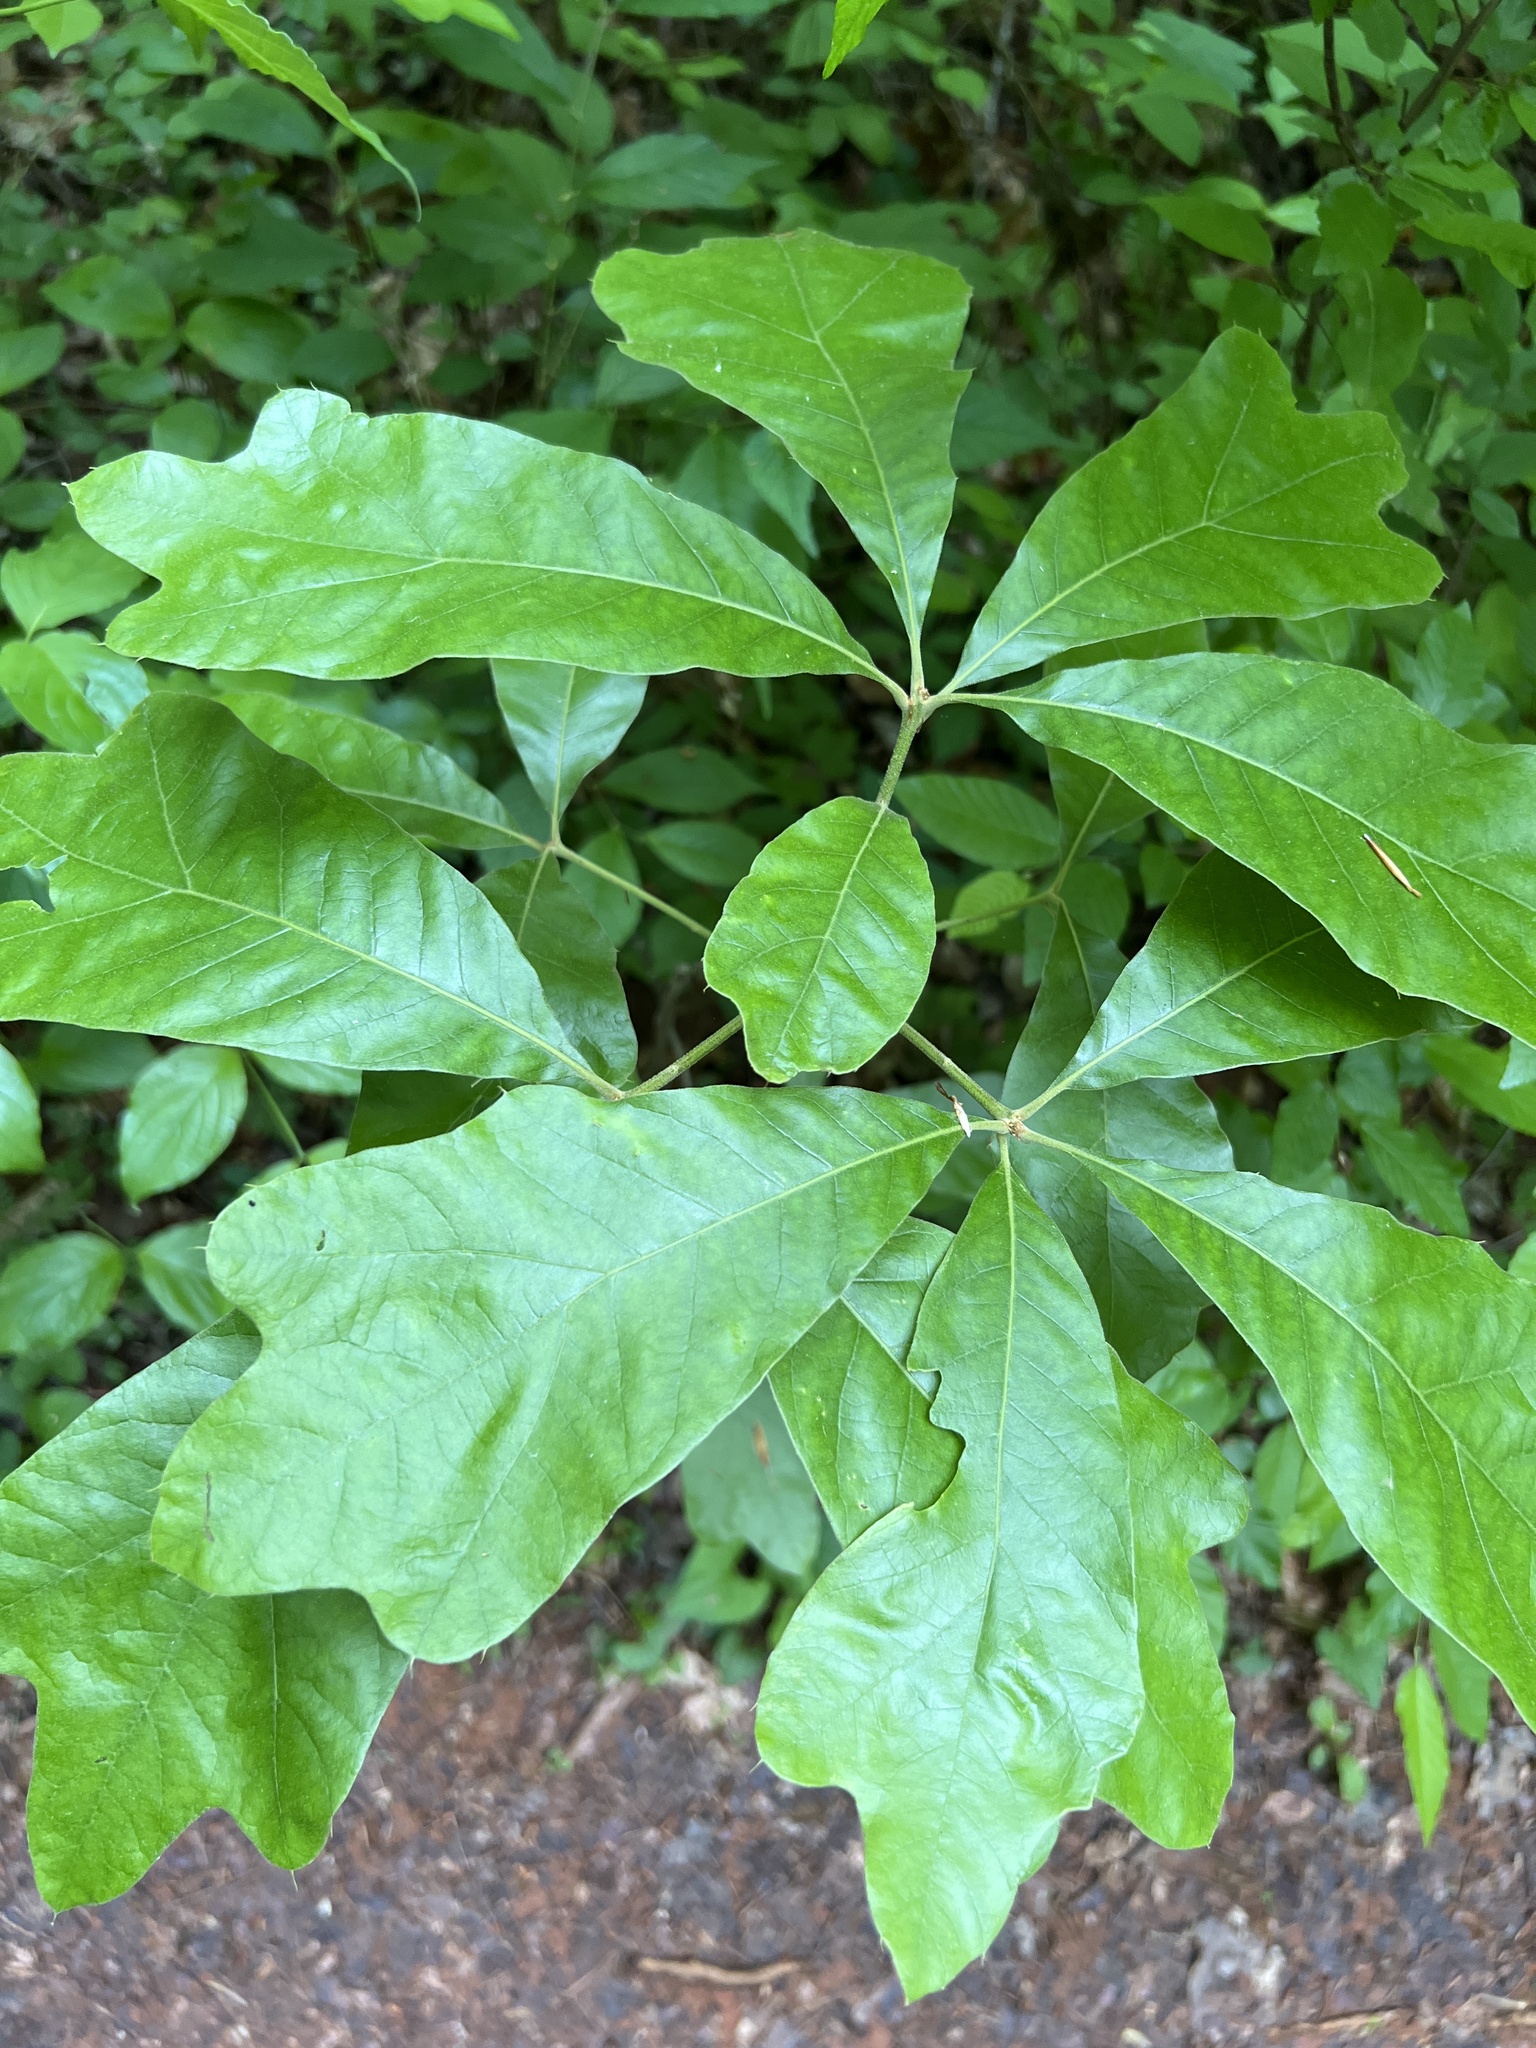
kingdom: Plantae
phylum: Tracheophyta
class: Magnoliopsida
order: Fagales
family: Fagaceae
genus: Quercus
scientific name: Quercus falcata
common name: Southern red oak
